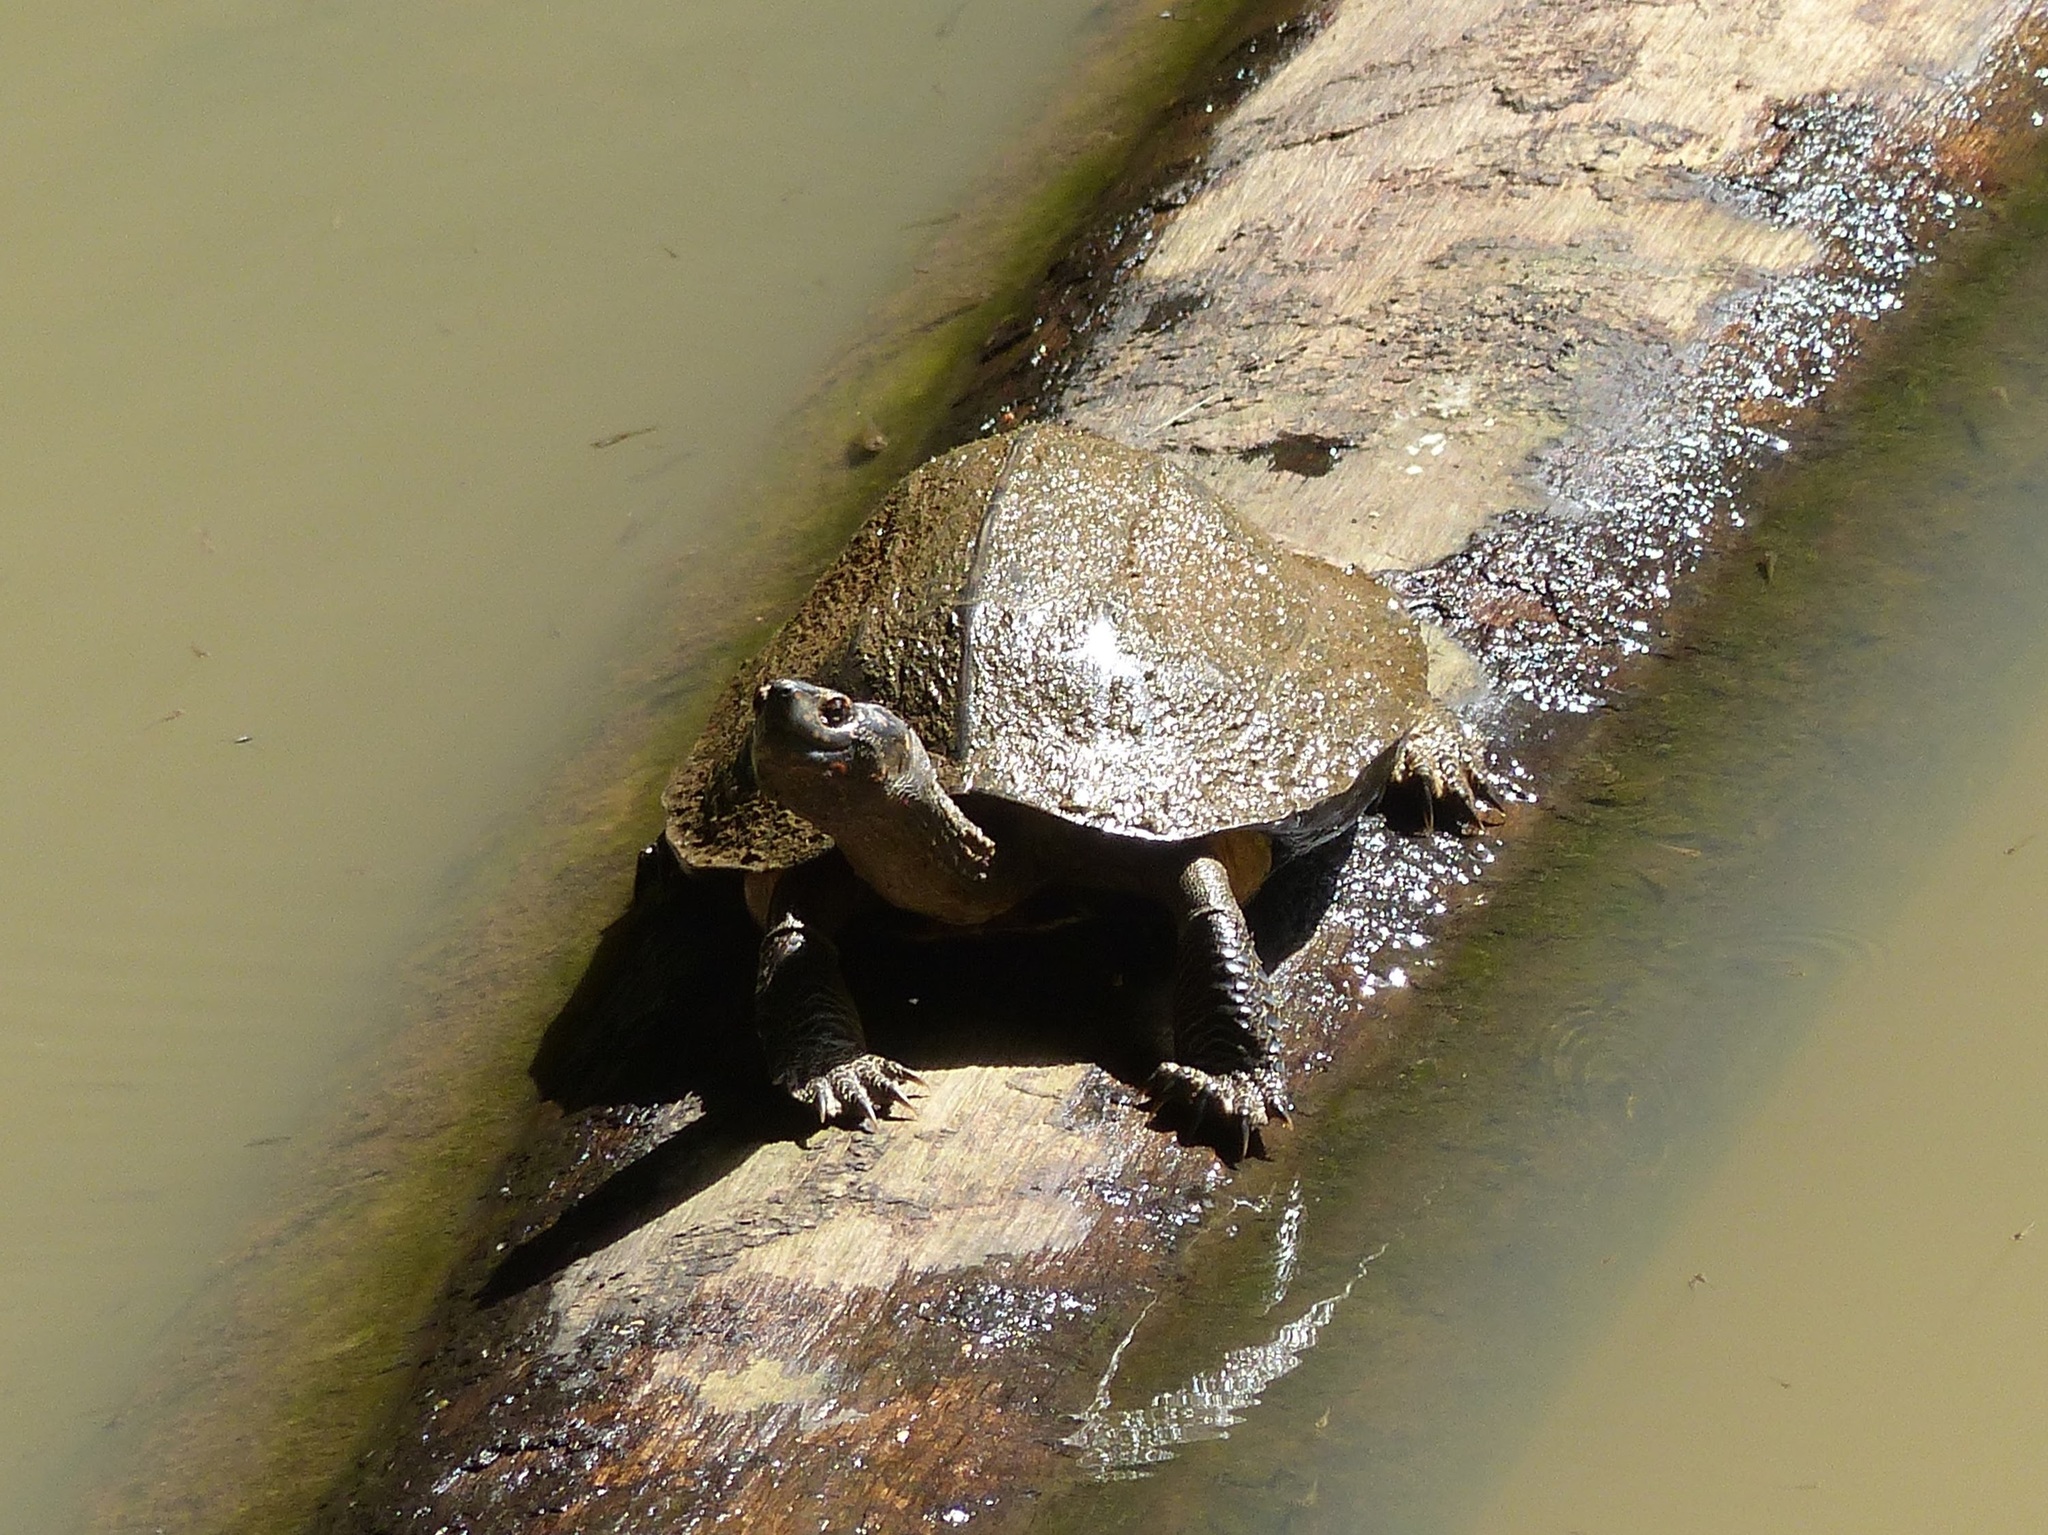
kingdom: Animalia
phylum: Chordata
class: Testudines
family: Geoemydidae
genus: Melanochelys
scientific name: Melanochelys trijuga
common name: Indian black turtle
